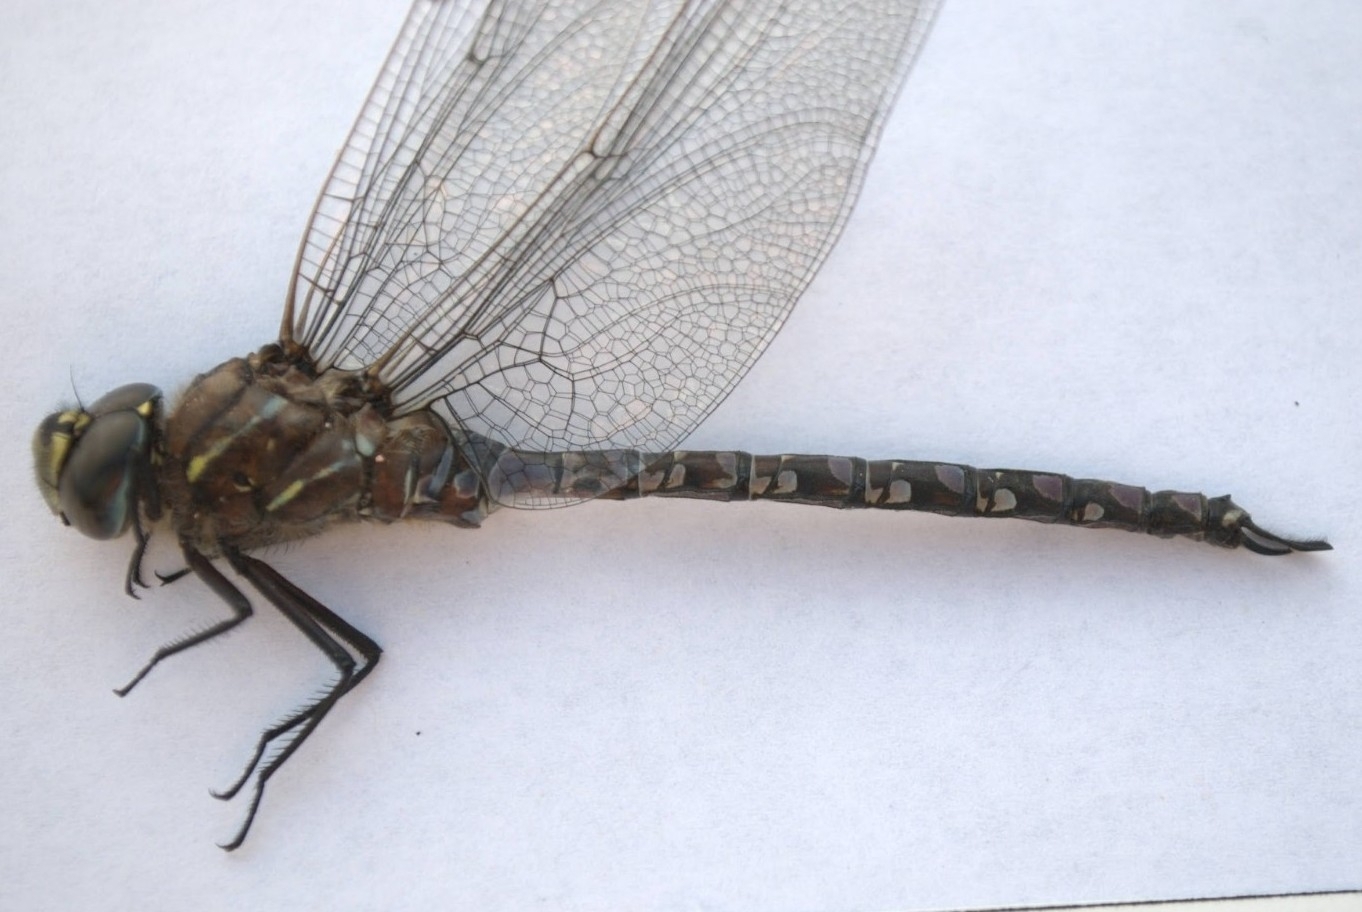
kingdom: Animalia
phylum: Arthropoda
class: Insecta
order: Odonata
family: Aeshnidae
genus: Aeshna
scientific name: Aeshna interrupta
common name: Variable darner
